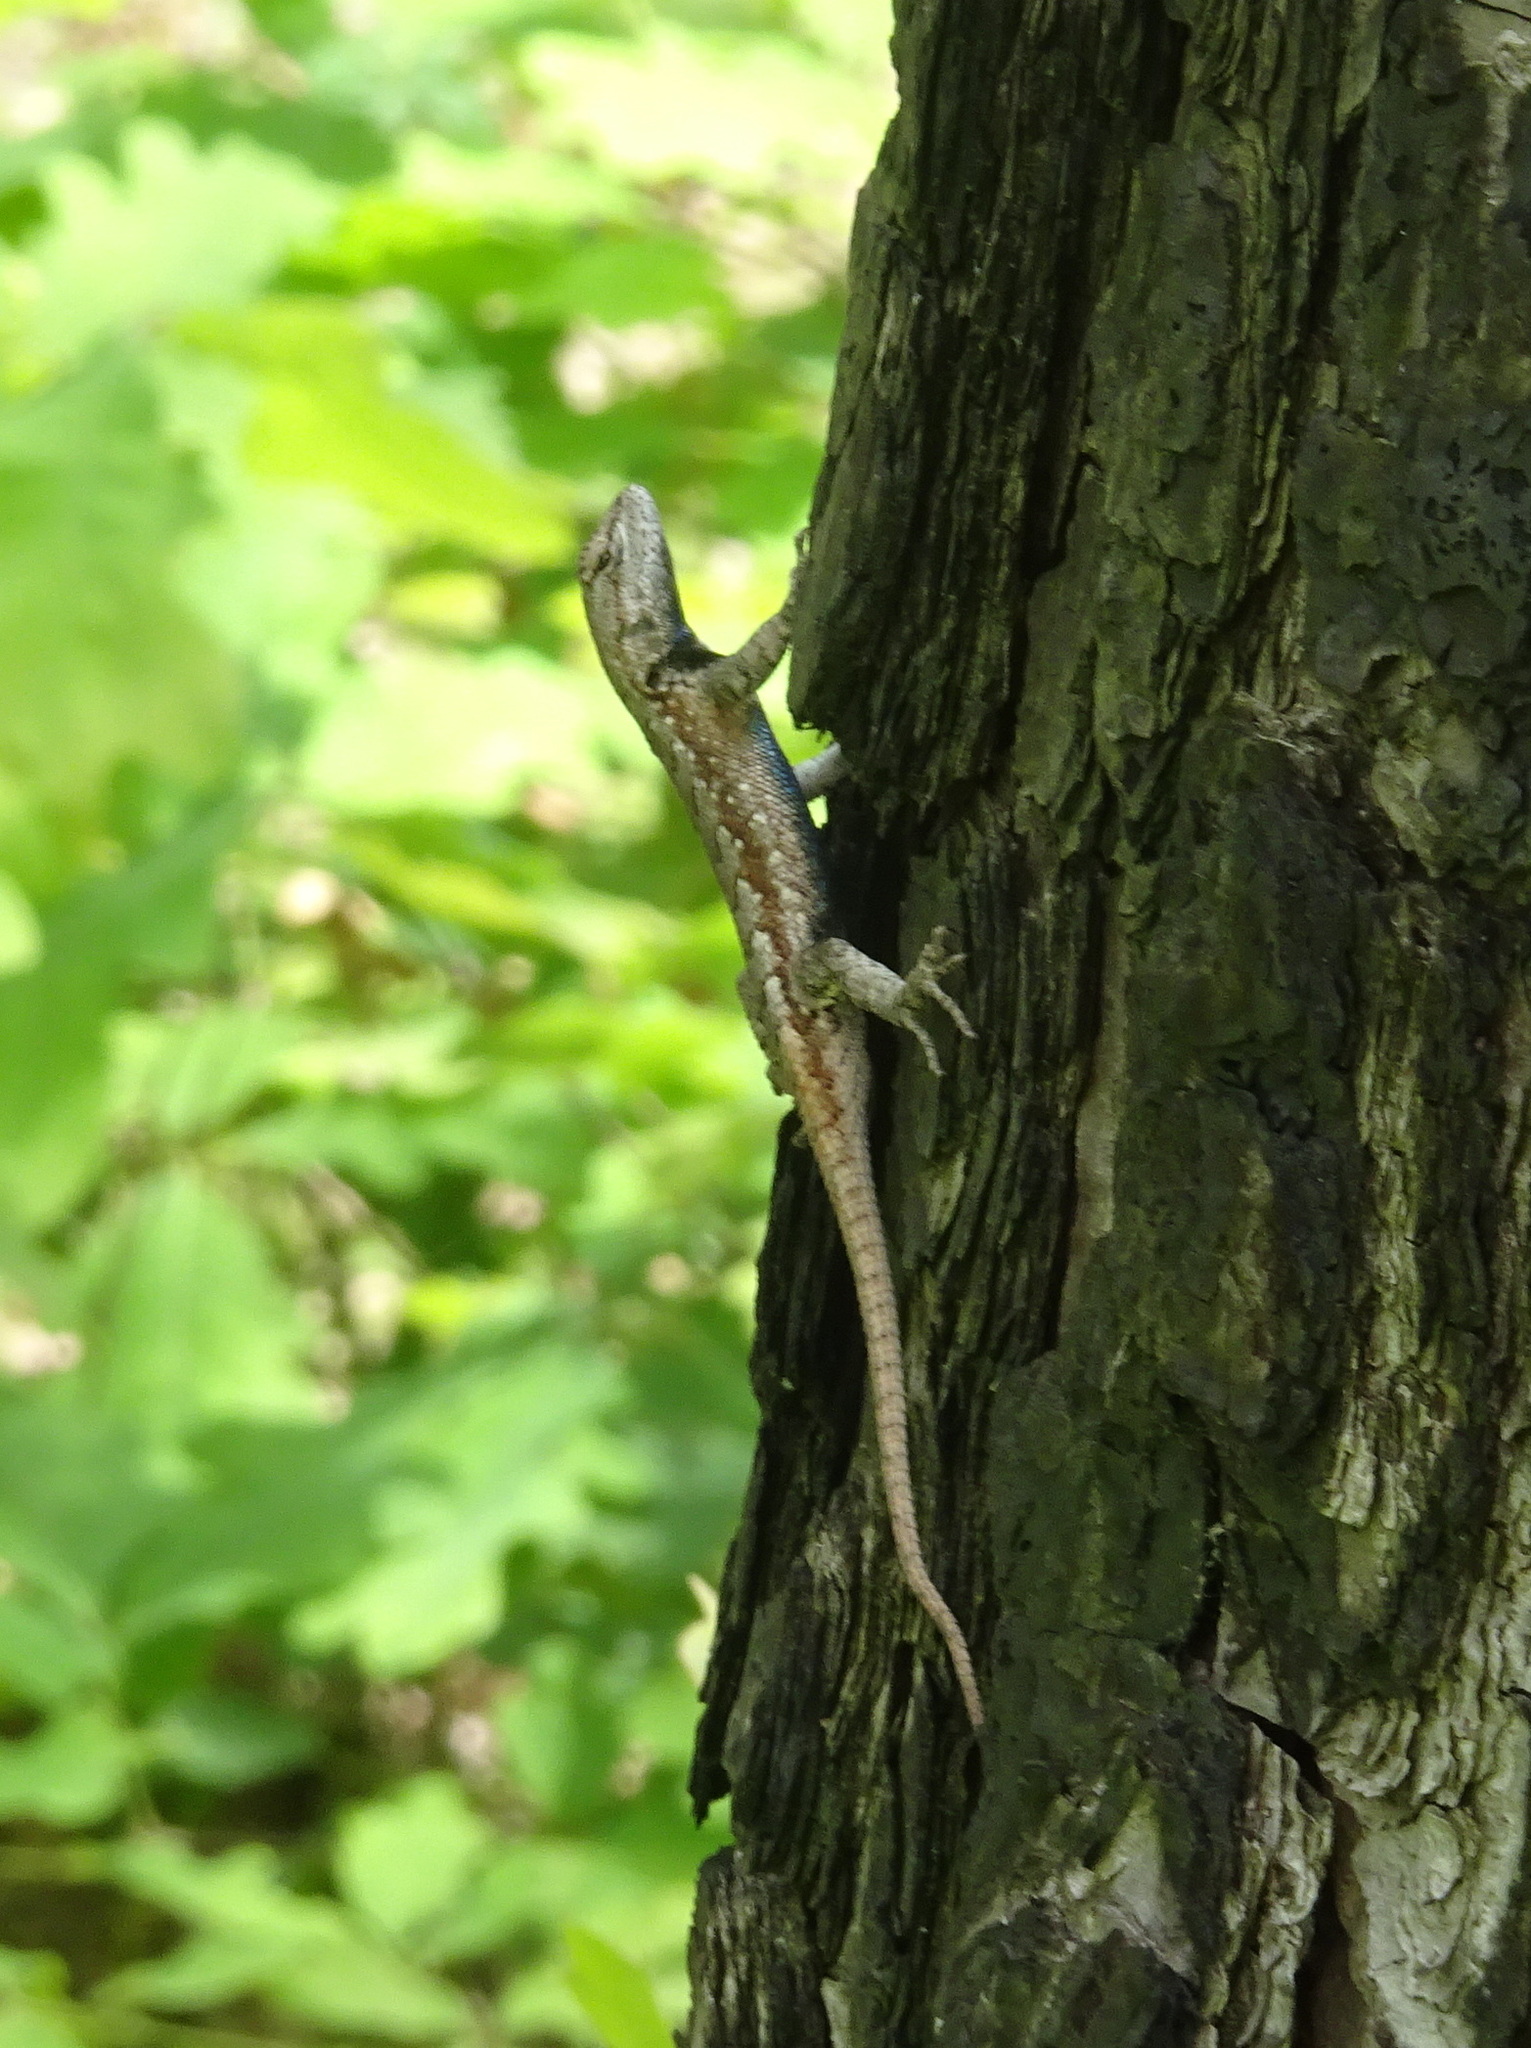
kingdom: Animalia
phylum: Chordata
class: Squamata
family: Phrynosomatidae
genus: Sceloporus
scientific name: Sceloporus consobrinus
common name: Southern prairie lizard
